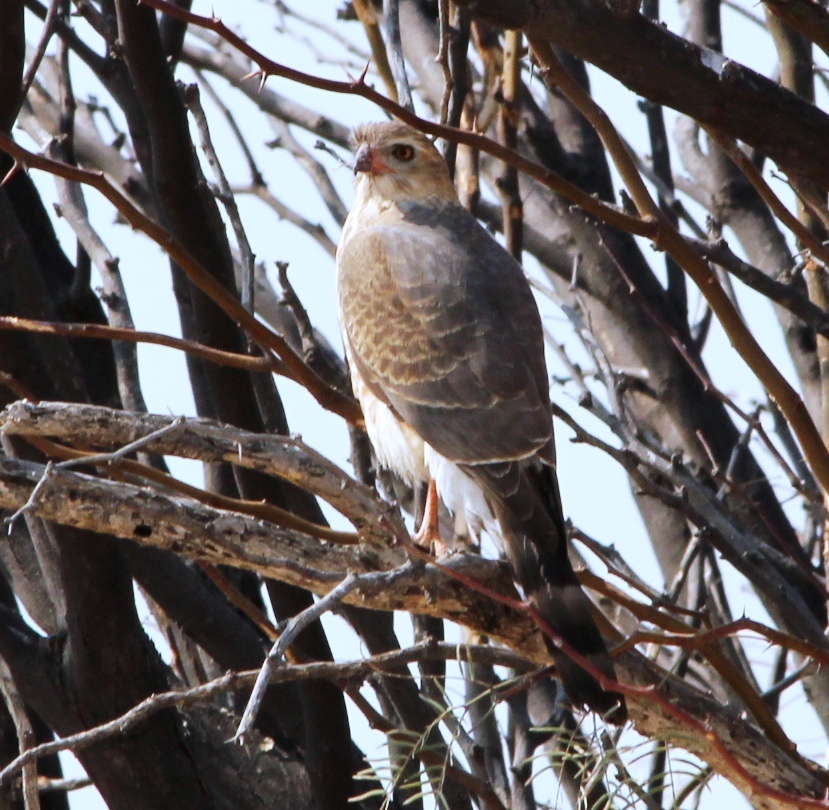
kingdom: Animalia
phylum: Chordata
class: Aves
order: Accipitriformes
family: Accipitridae
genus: Micronisus
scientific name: Micronisus gabar
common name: Gabar goshawk
